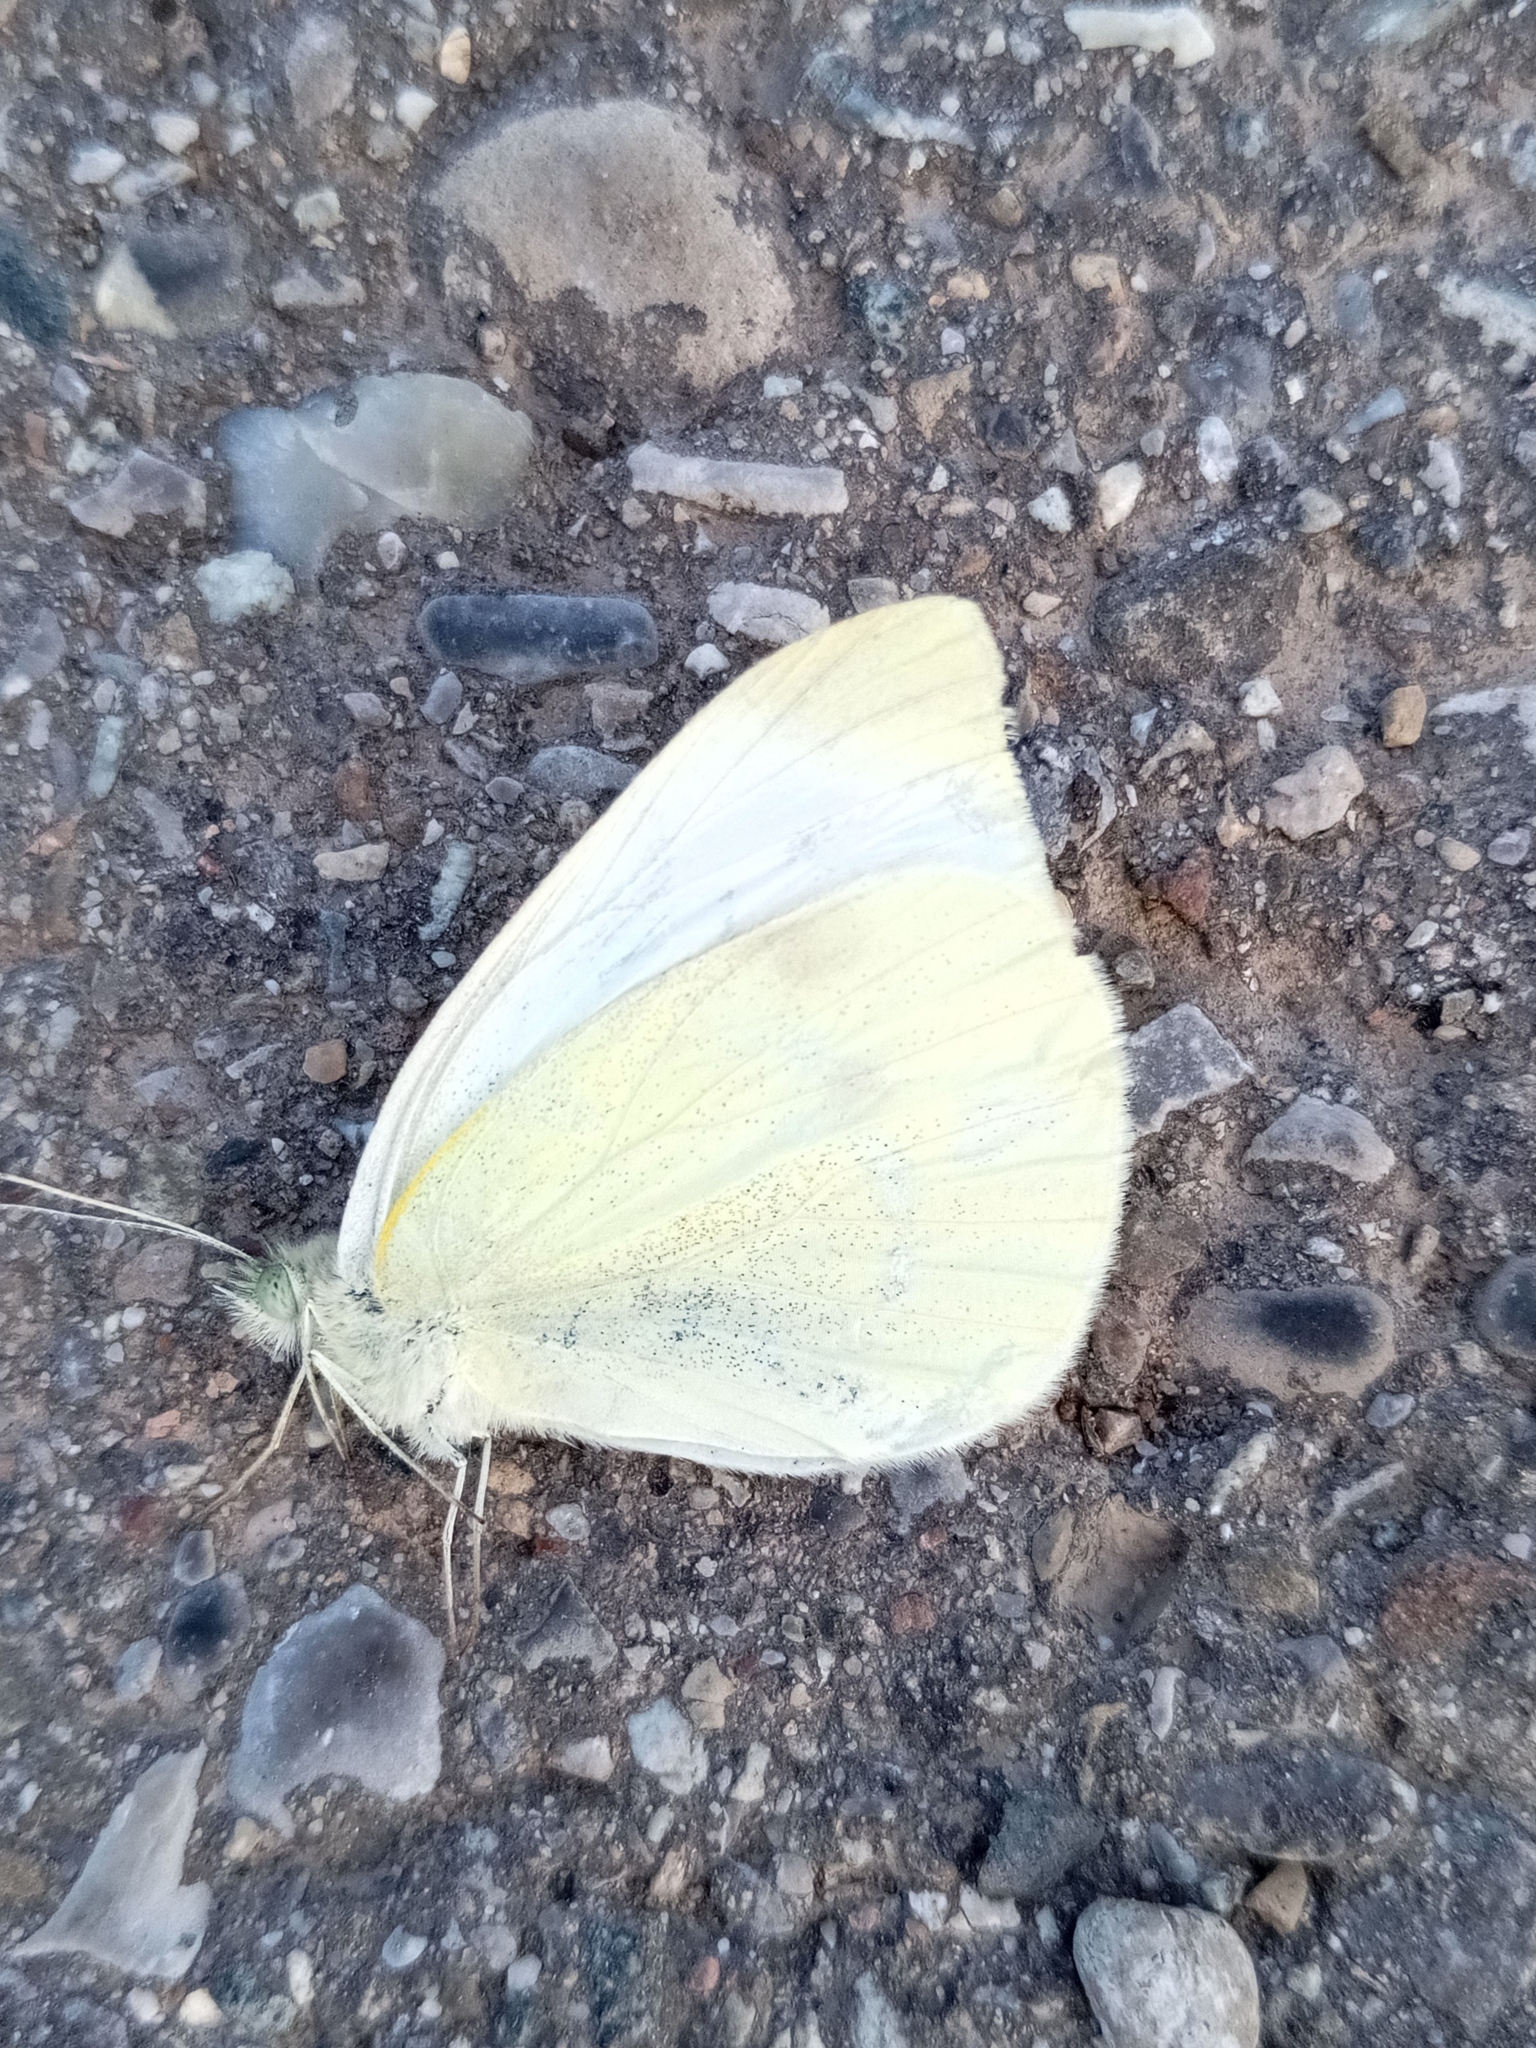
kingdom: Animalia
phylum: Arthropoda
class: Insecta
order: Lepidoptera
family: Pieridae
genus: Pieris
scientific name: Pieris rapae
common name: Small white
